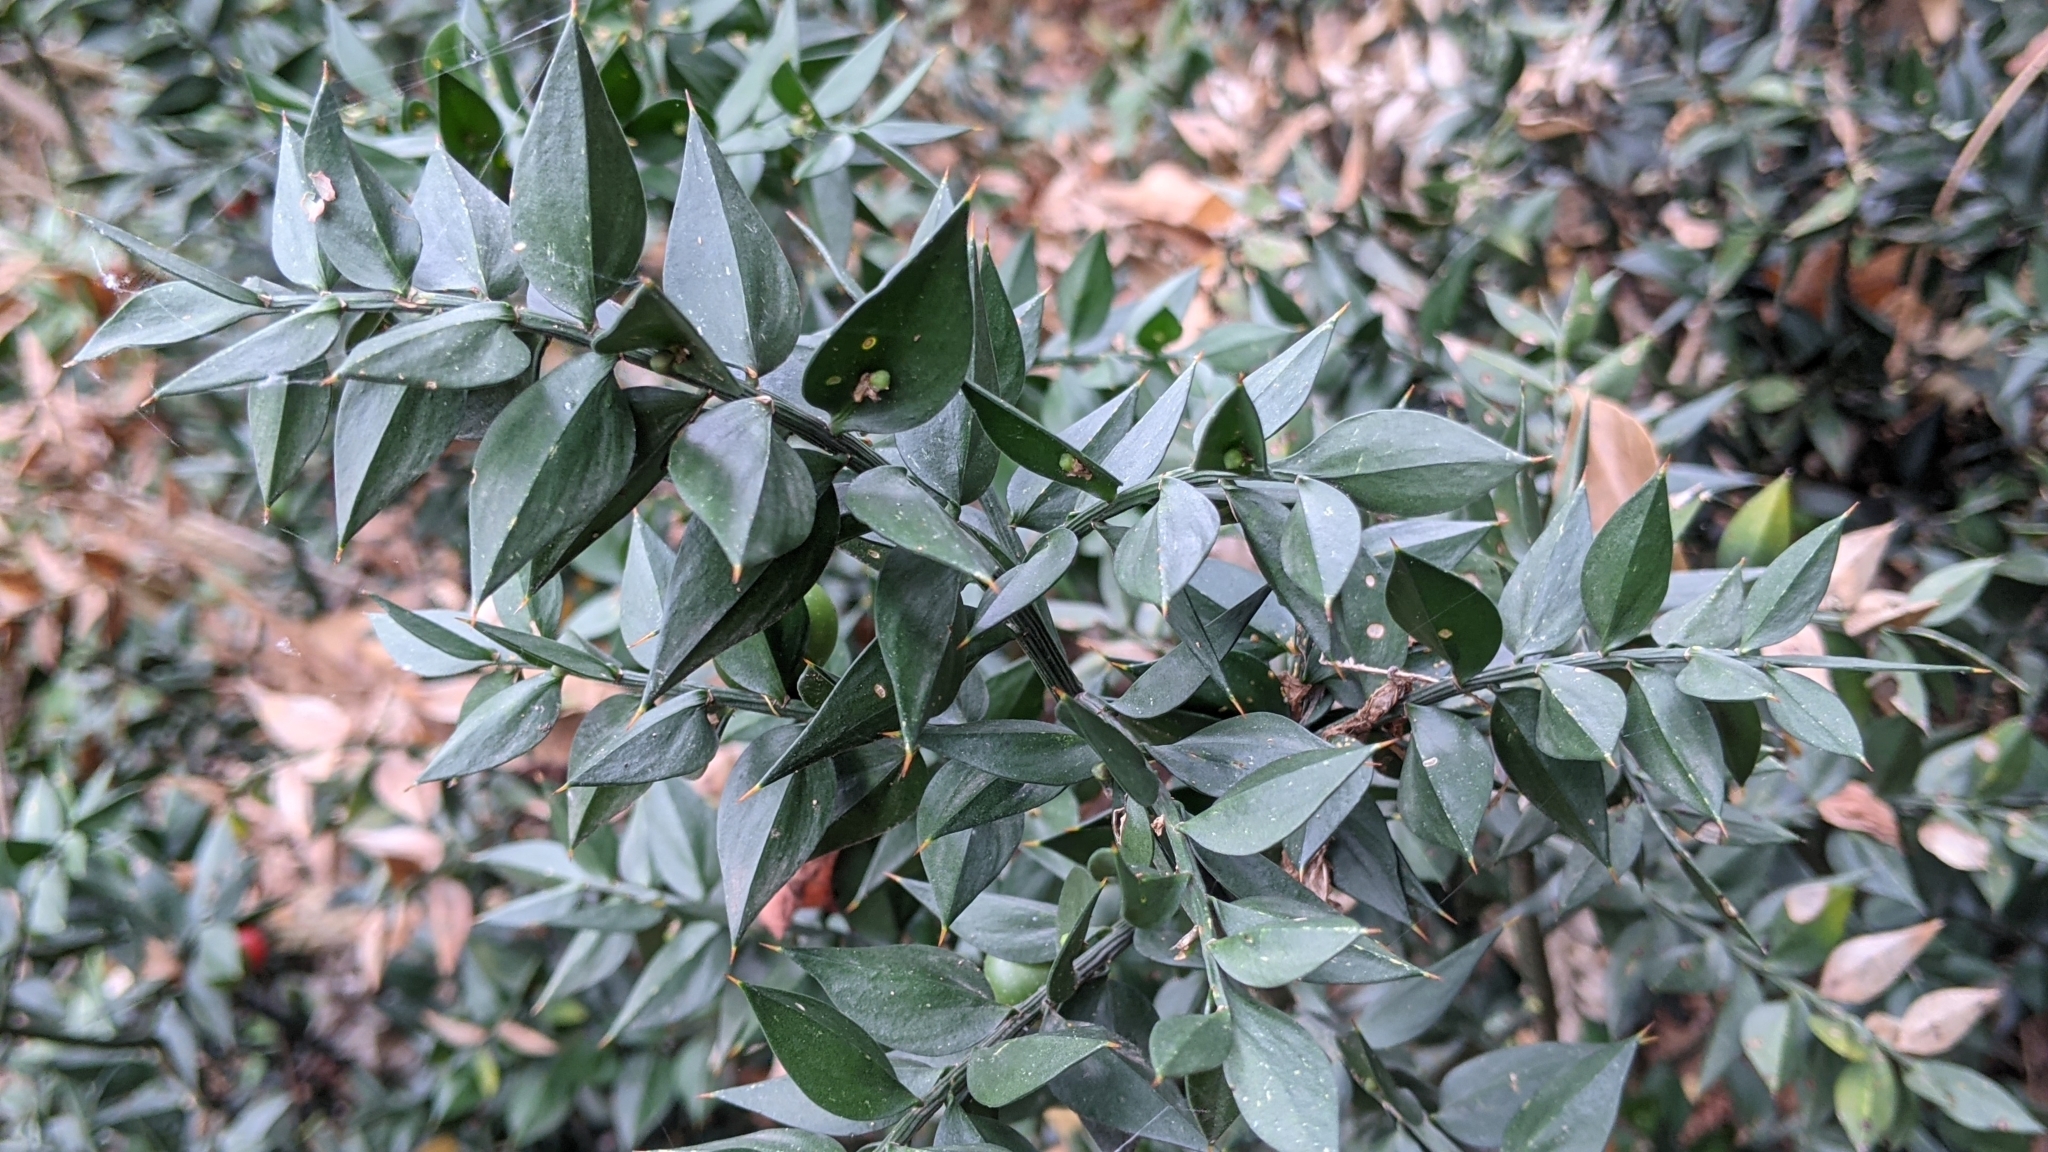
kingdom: Plantae
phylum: Tracheophyta
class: Liliopsida
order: Asparagales
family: Asparagaceae
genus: Ruscus
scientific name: Ruscus aculeatus
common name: Butcher's-broom
